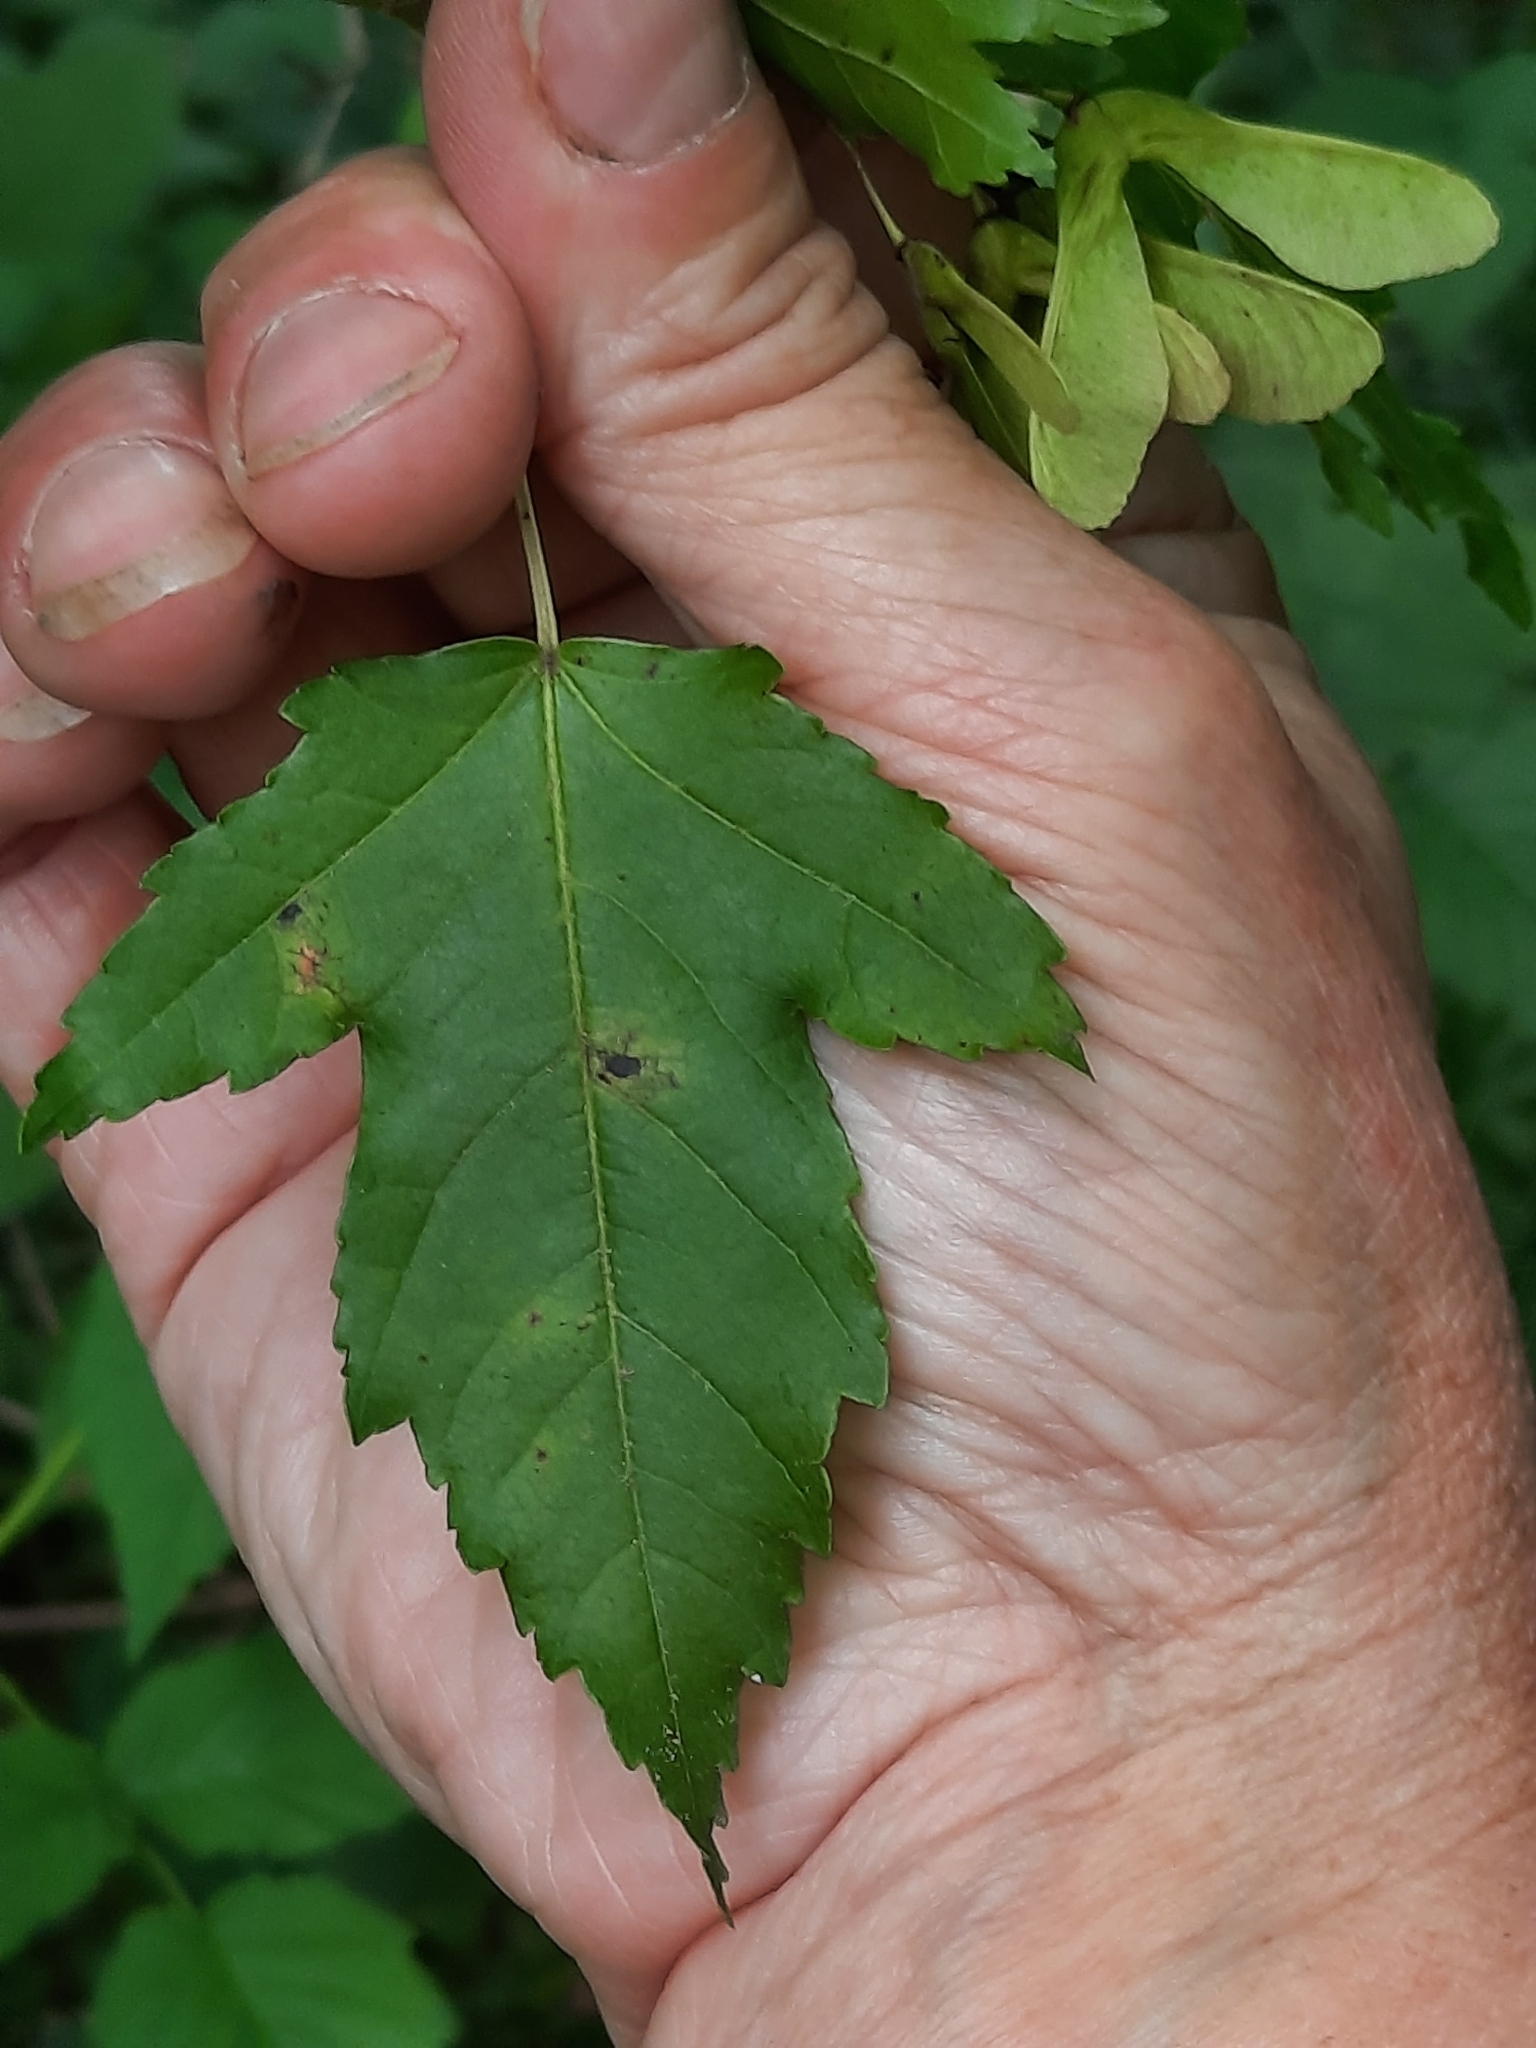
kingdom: Plantae
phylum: Tracheophyta
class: Magnoliopsida
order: Sapindales
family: Sapindaceae
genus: Acer
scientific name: Acer tataricum
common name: Tartar maple
